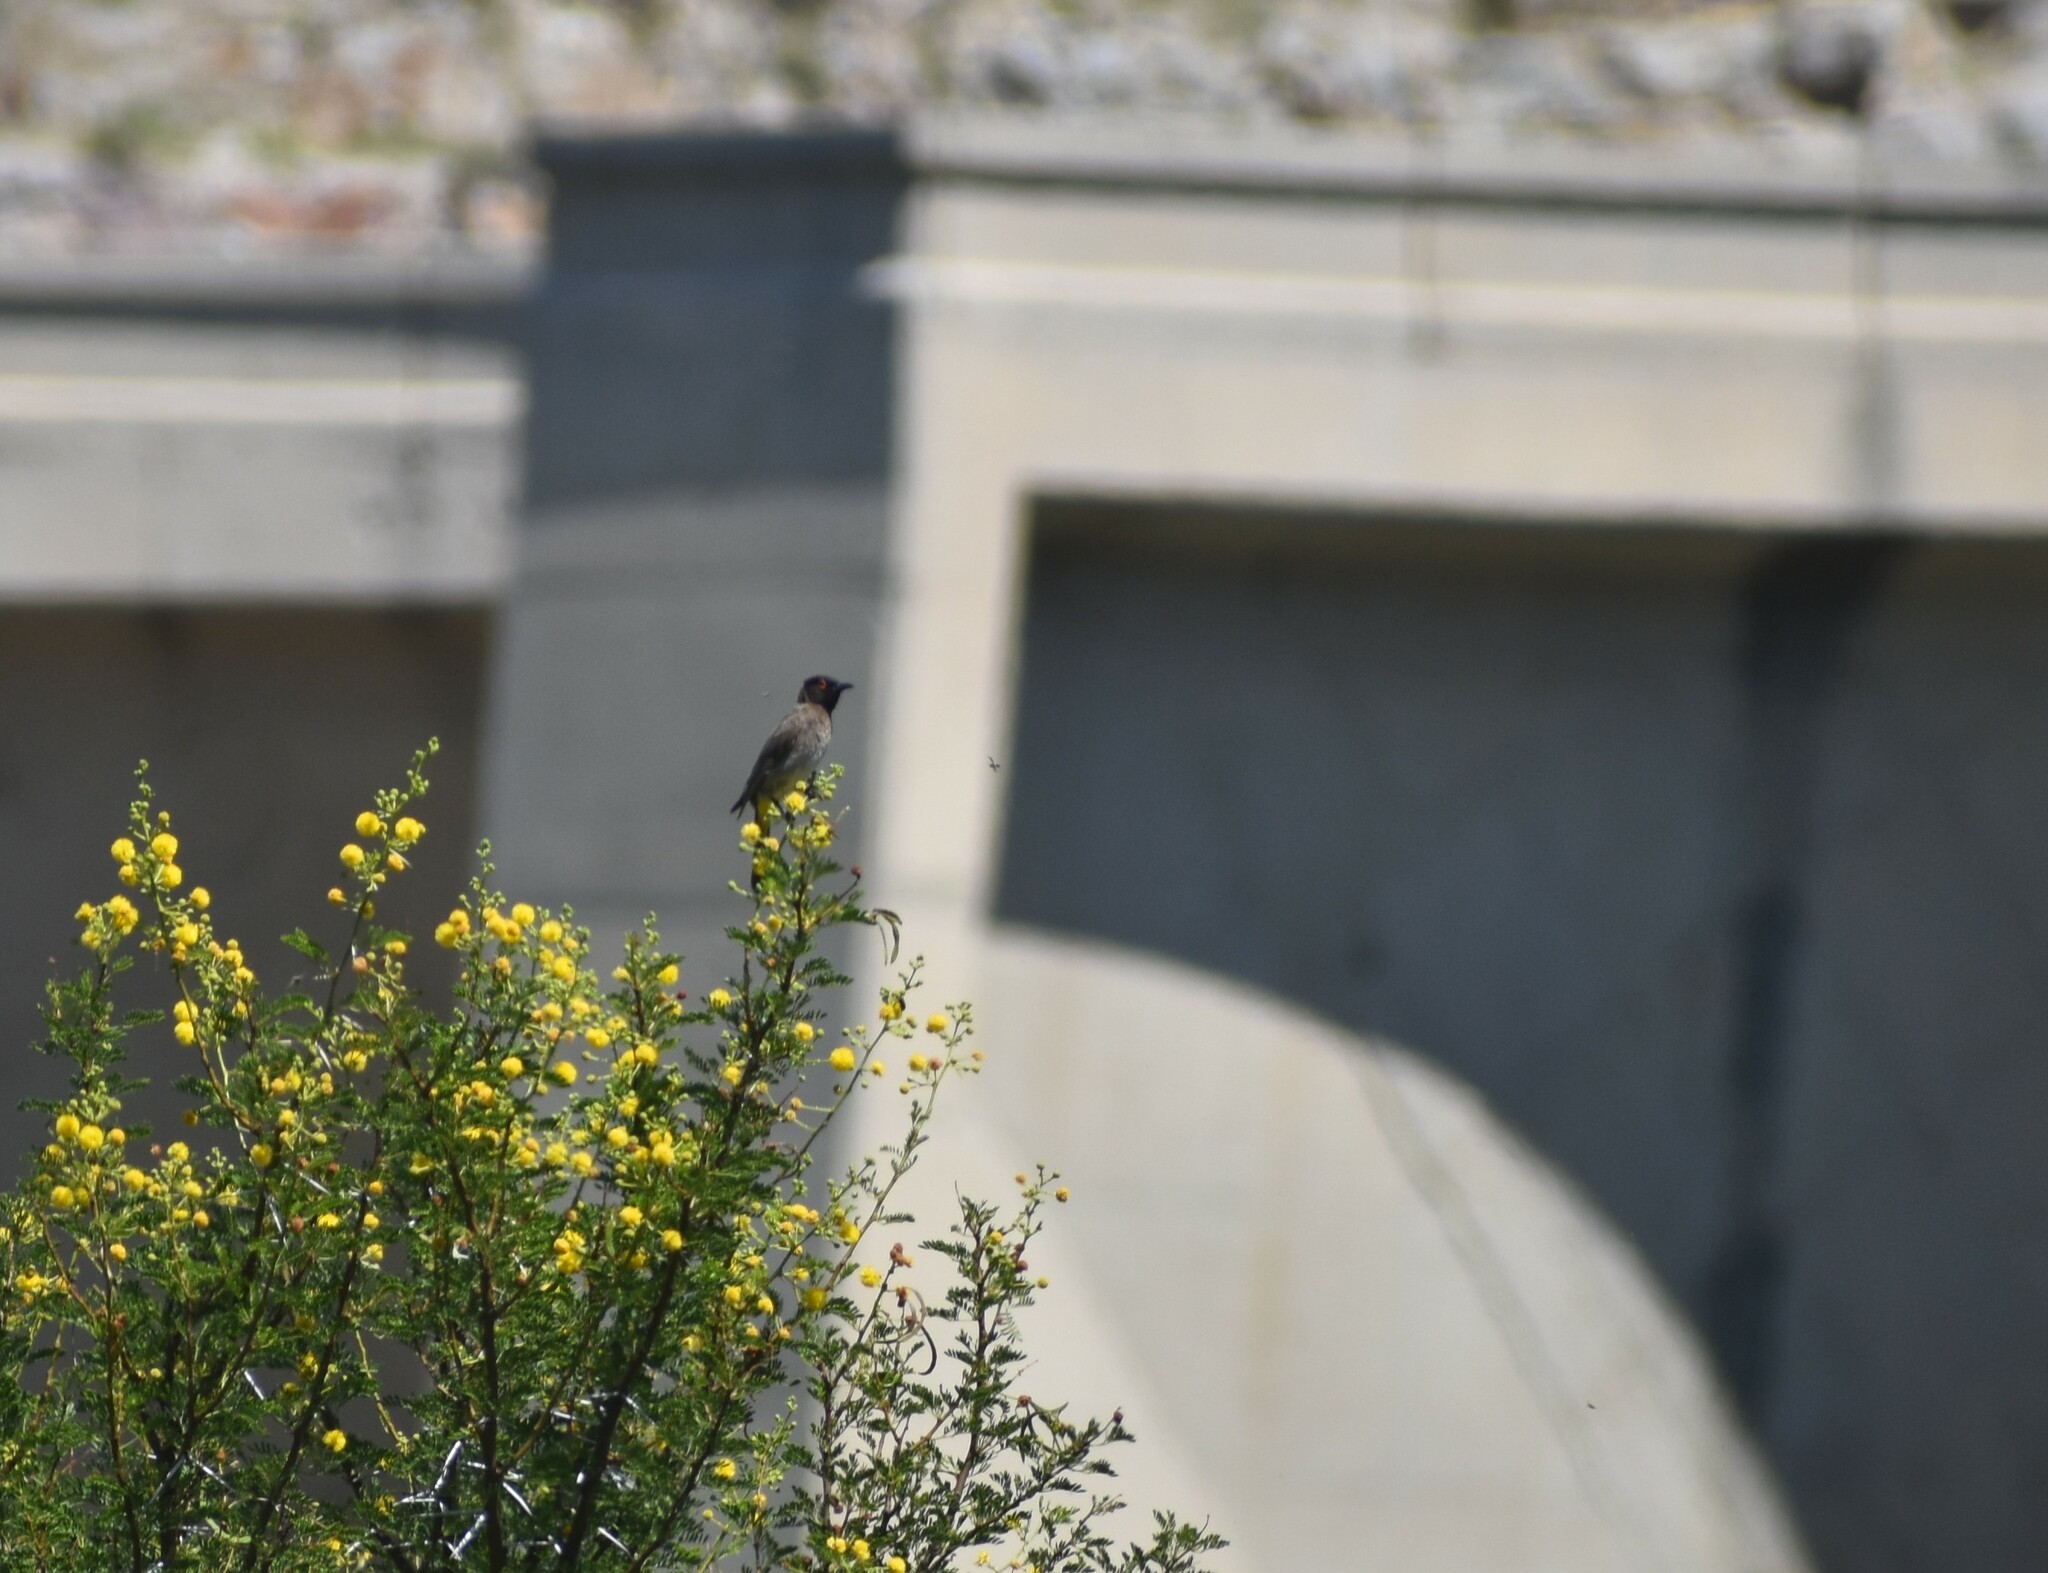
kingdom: Animalia
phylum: Chordata
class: Aves
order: Passeriformes
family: Pycnonotidae
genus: Pycnonotus
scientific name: Pycnonotus nigricans
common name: African red-eyed bulbul
